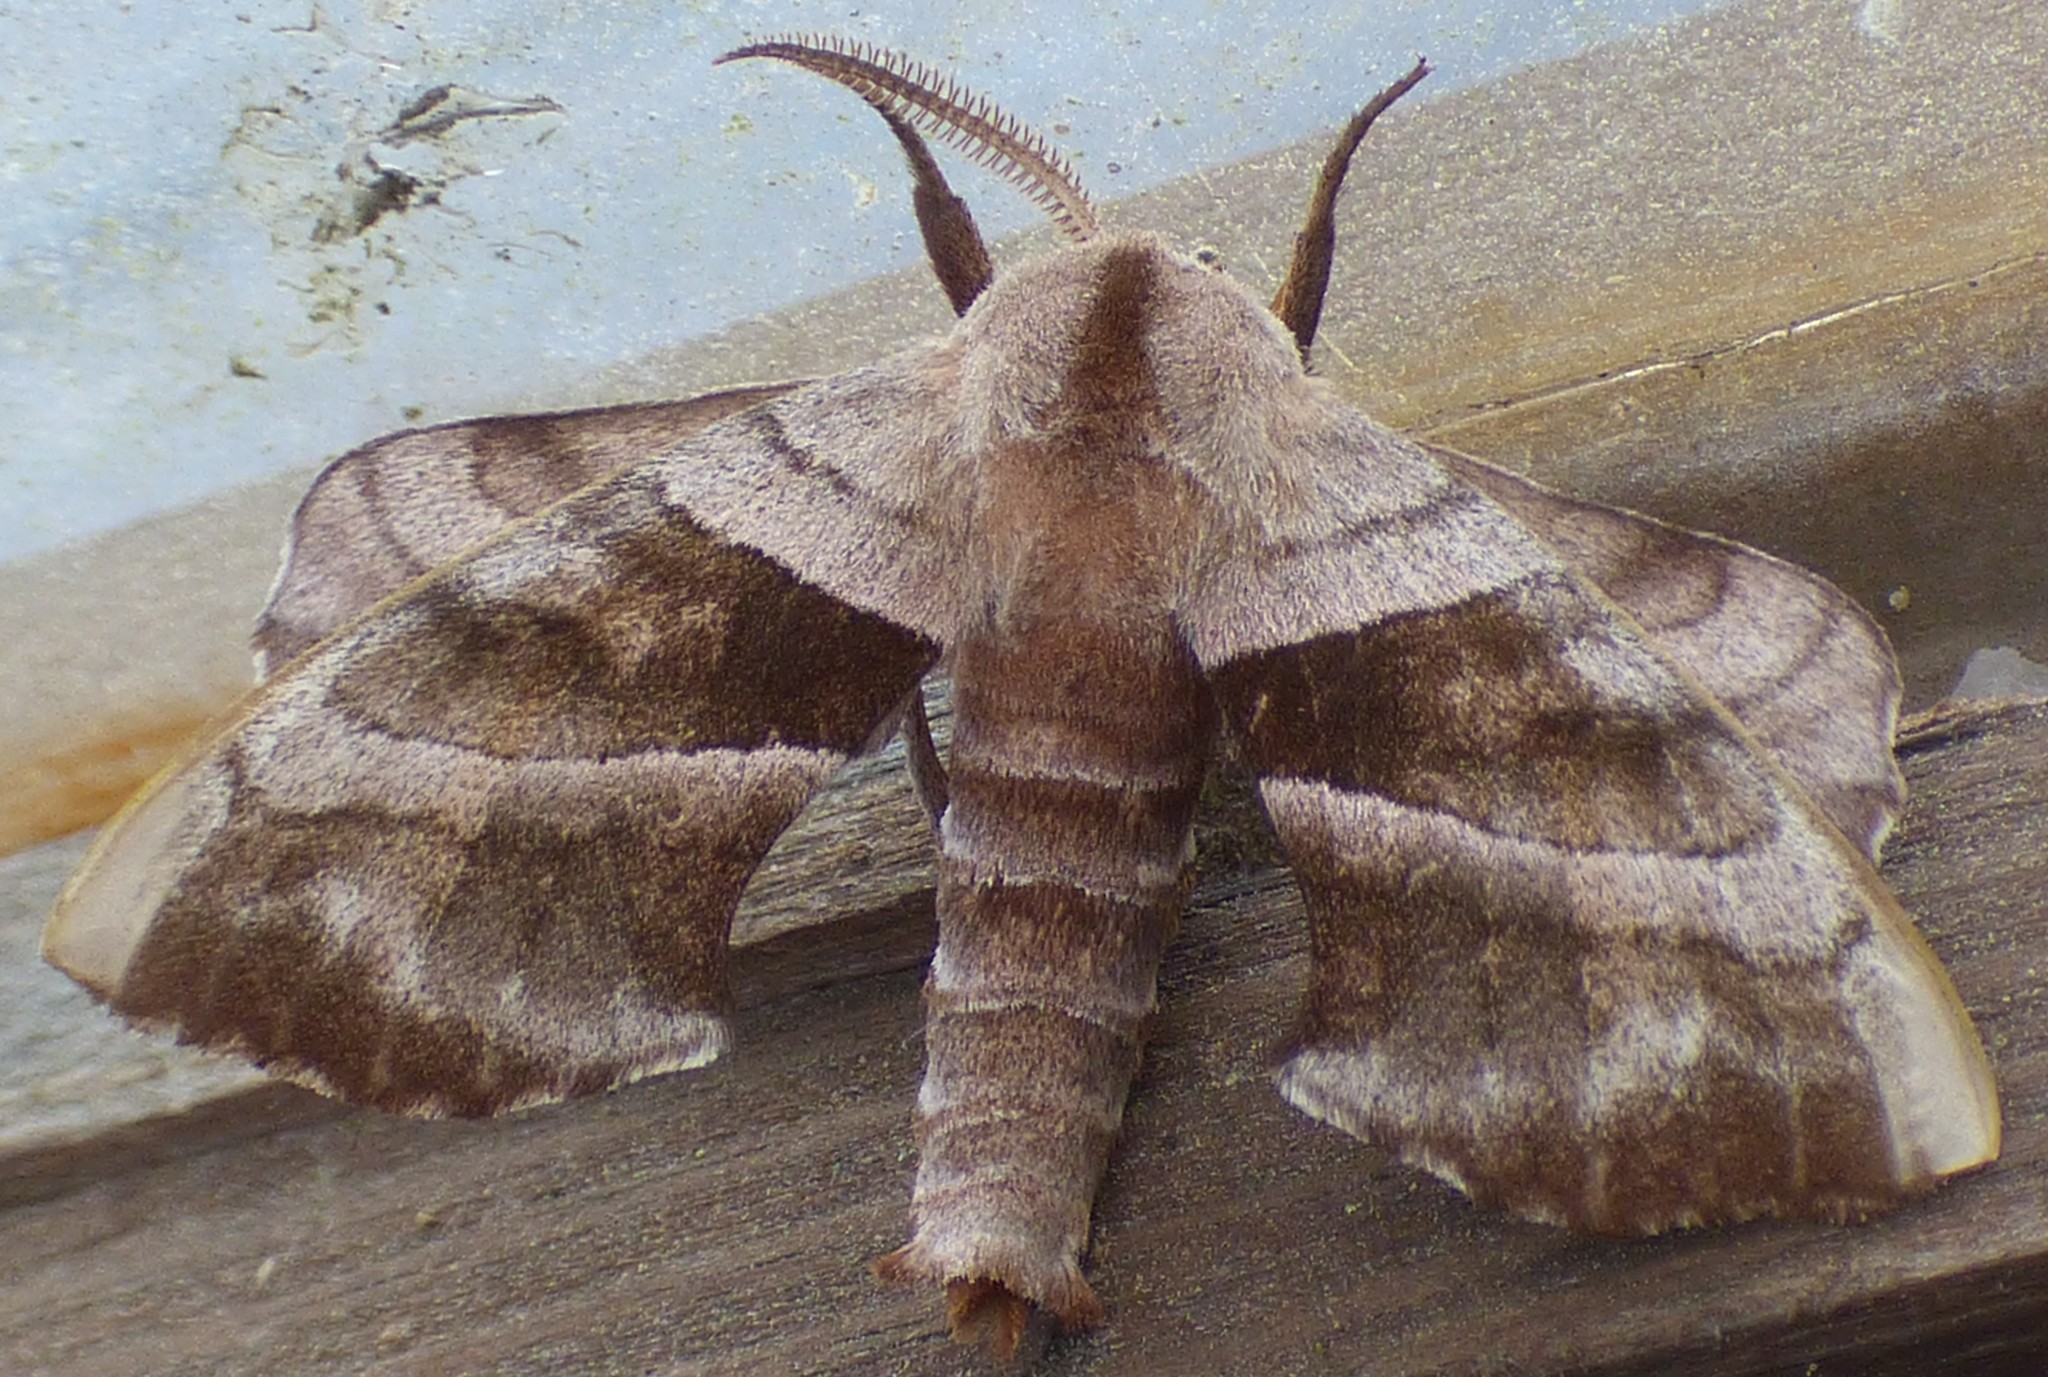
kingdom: Animalia
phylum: Arthropoda
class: Insecta
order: Lepidoptera
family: Sphingidae
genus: Amorpha
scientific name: Amorpha juglandis
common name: Walnut sphinx
